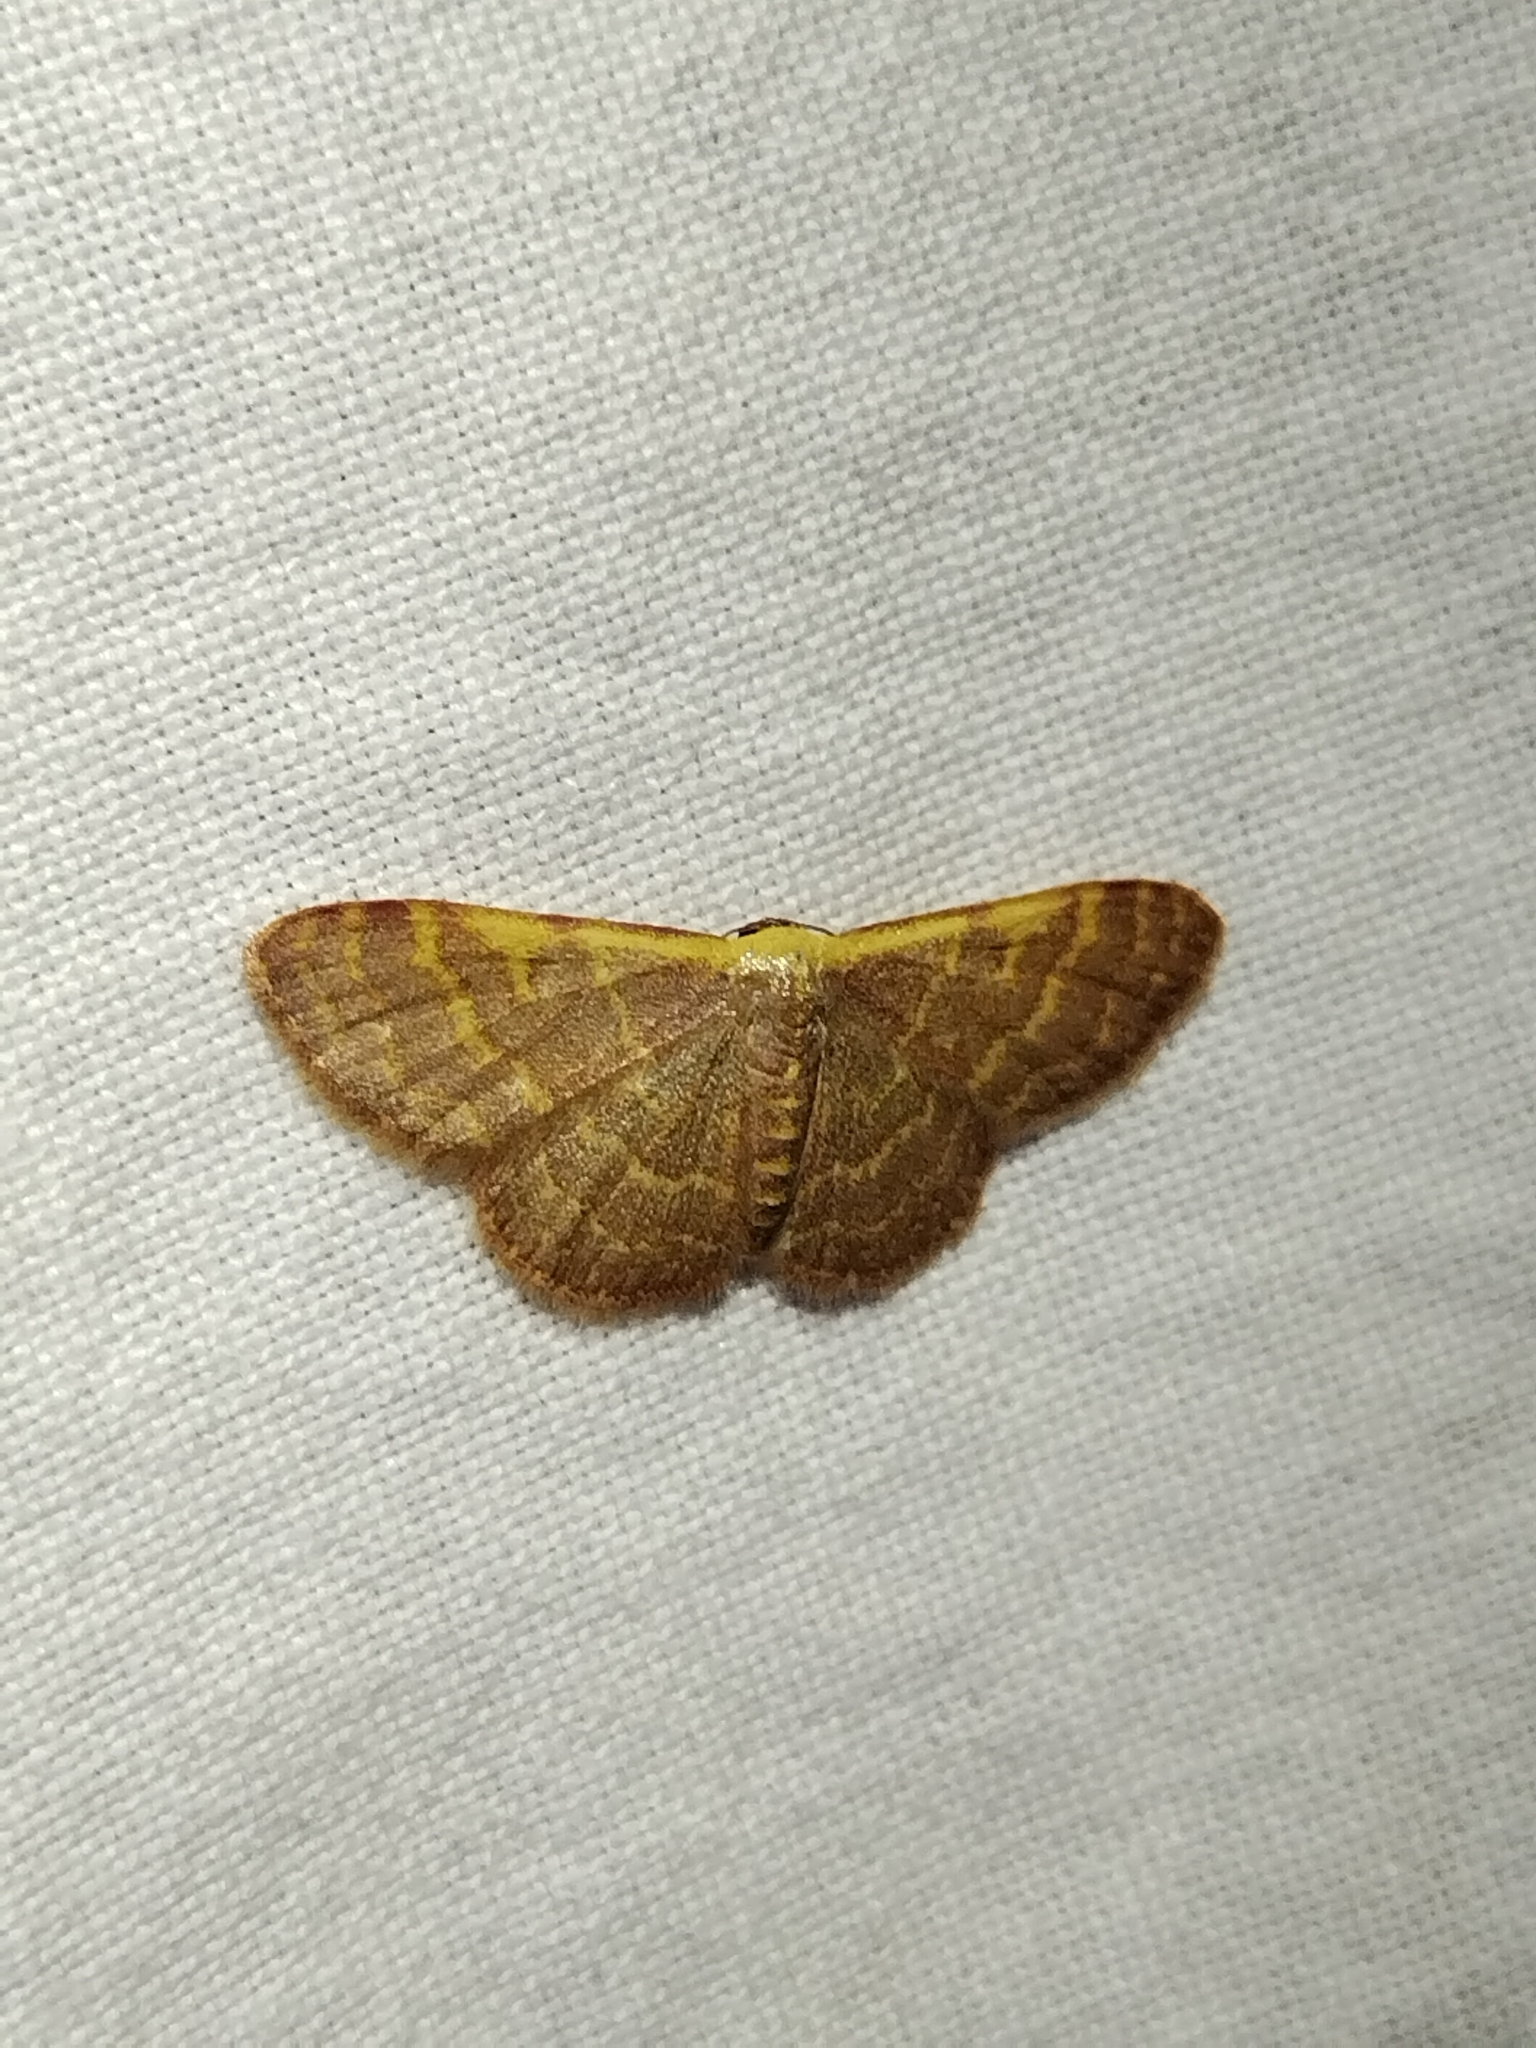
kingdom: Animalia
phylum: Arthropoda
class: Insecta
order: Lepidoptera
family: Geometridae
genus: Leptostales
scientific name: Leptostales pannaria
